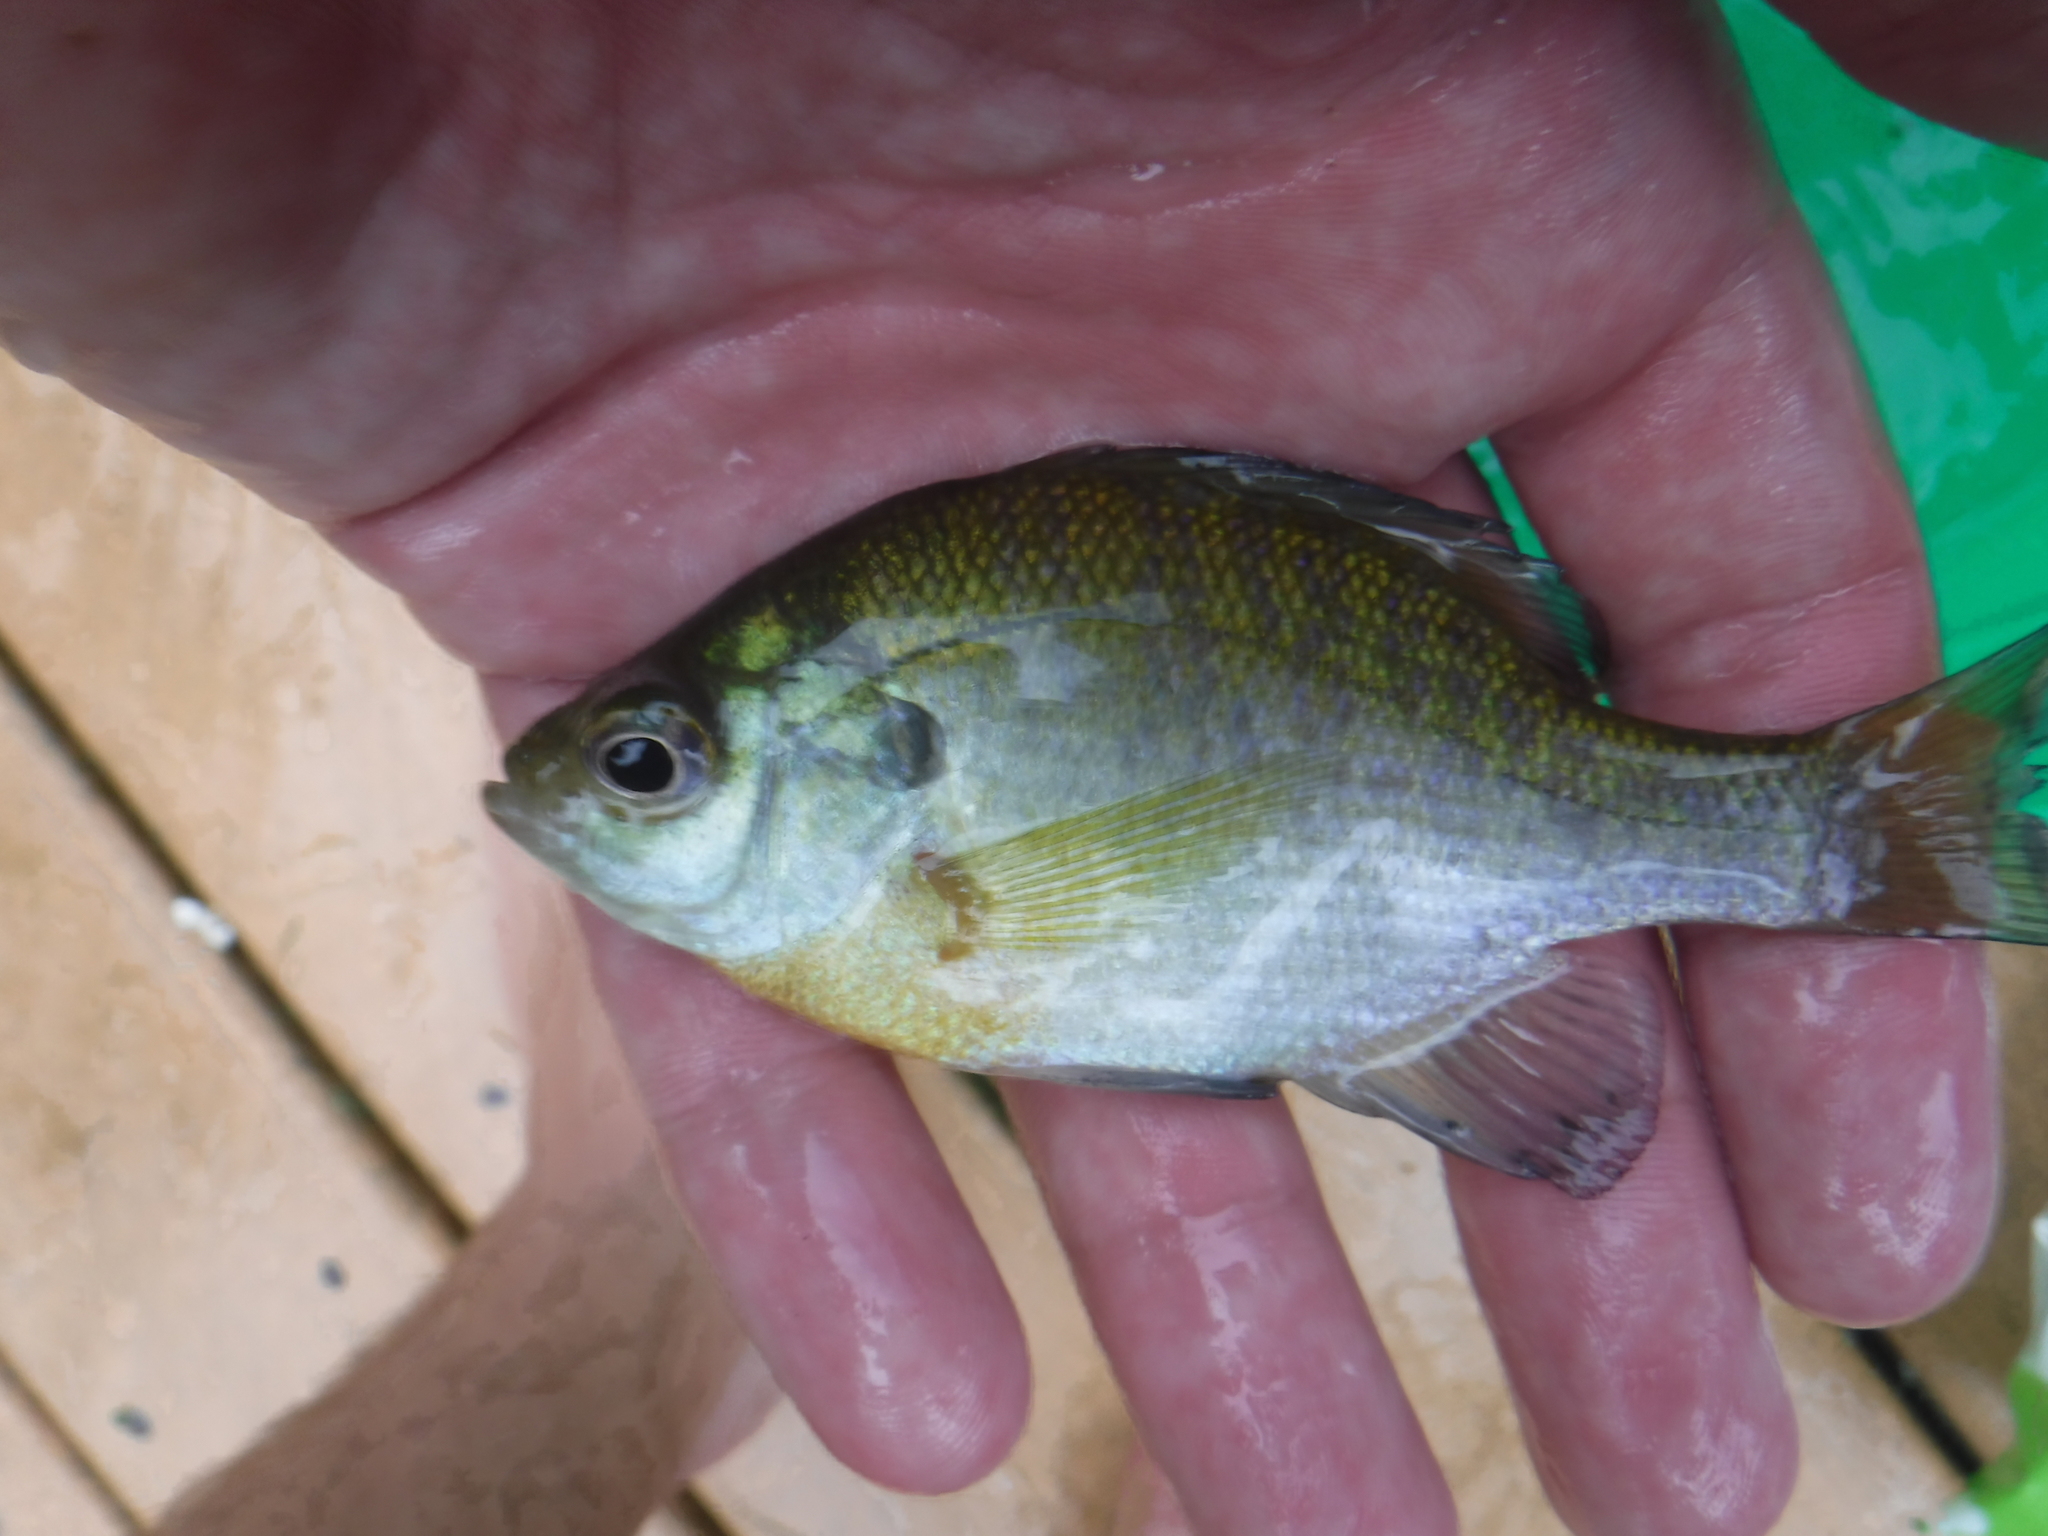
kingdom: Animalia
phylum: Chordata
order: Perciformes
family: Centrarchidae
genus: Lepomis
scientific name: Lepomis macrochirus
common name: Bluegill
